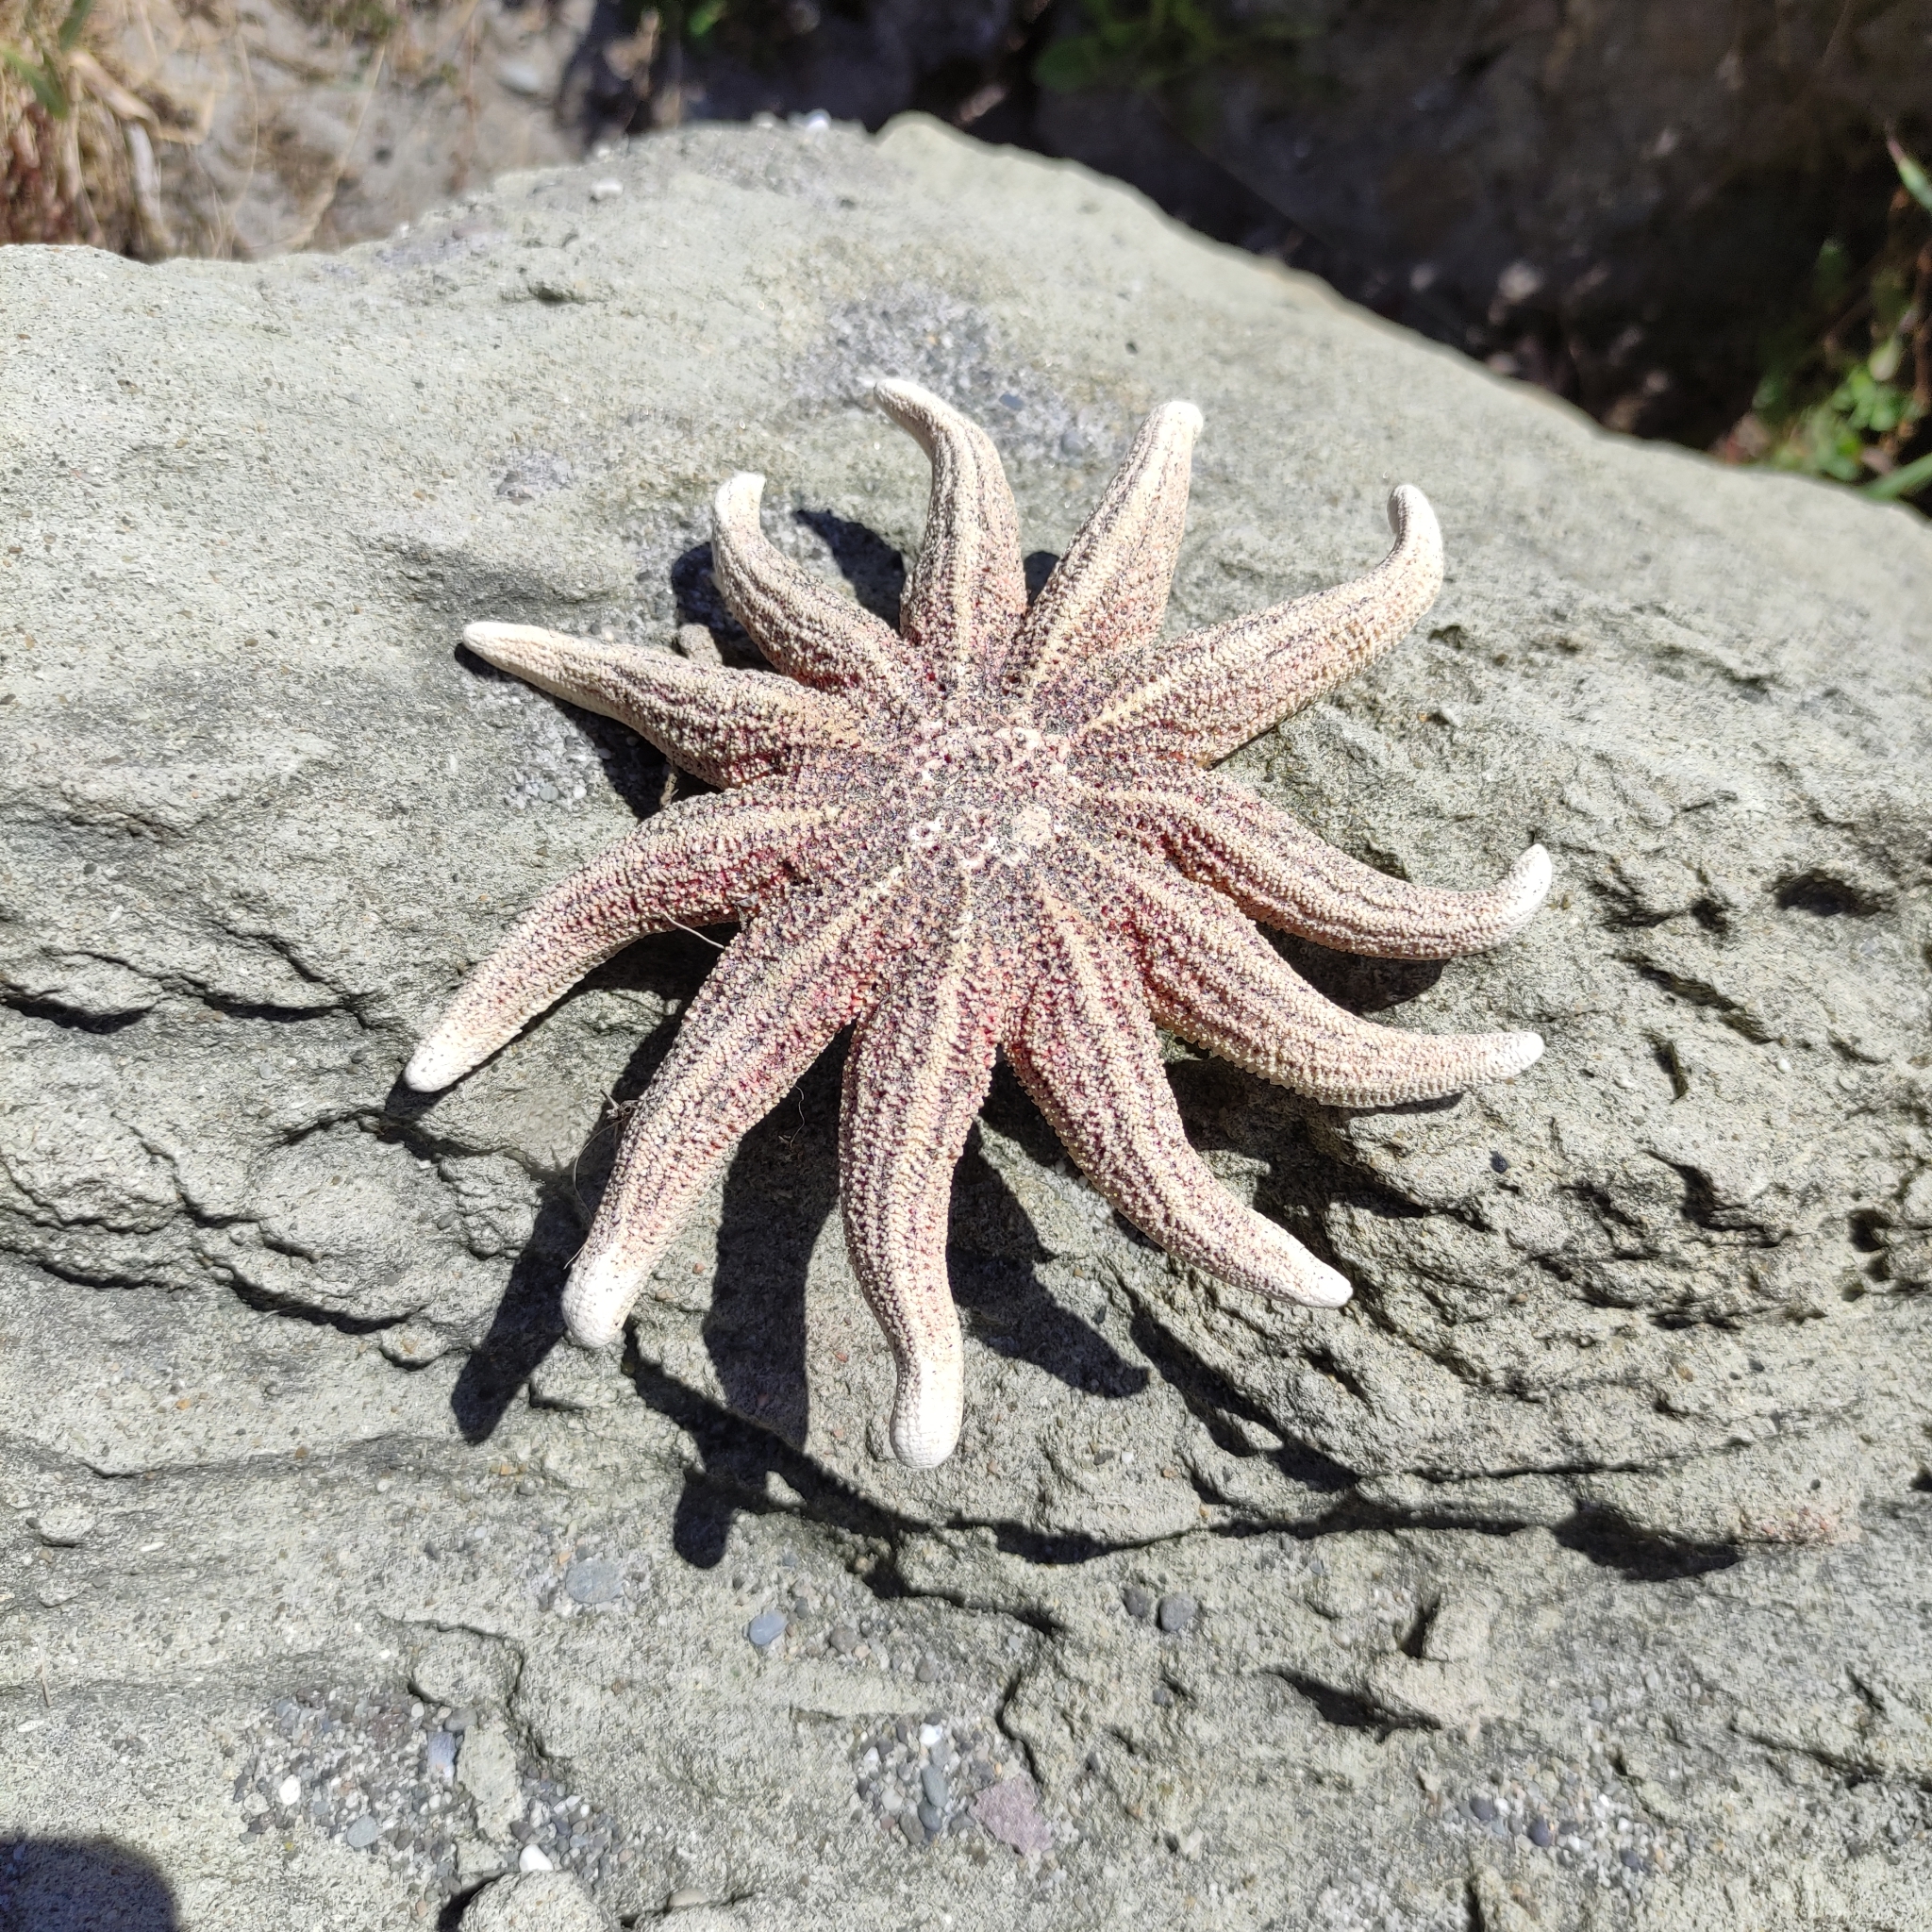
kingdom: Animalia
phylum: Echinodermata
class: Asteroidea
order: Forcipulatida
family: Stichasteridae
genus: Stichaster
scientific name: Stichaster australis
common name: Reef starfish
